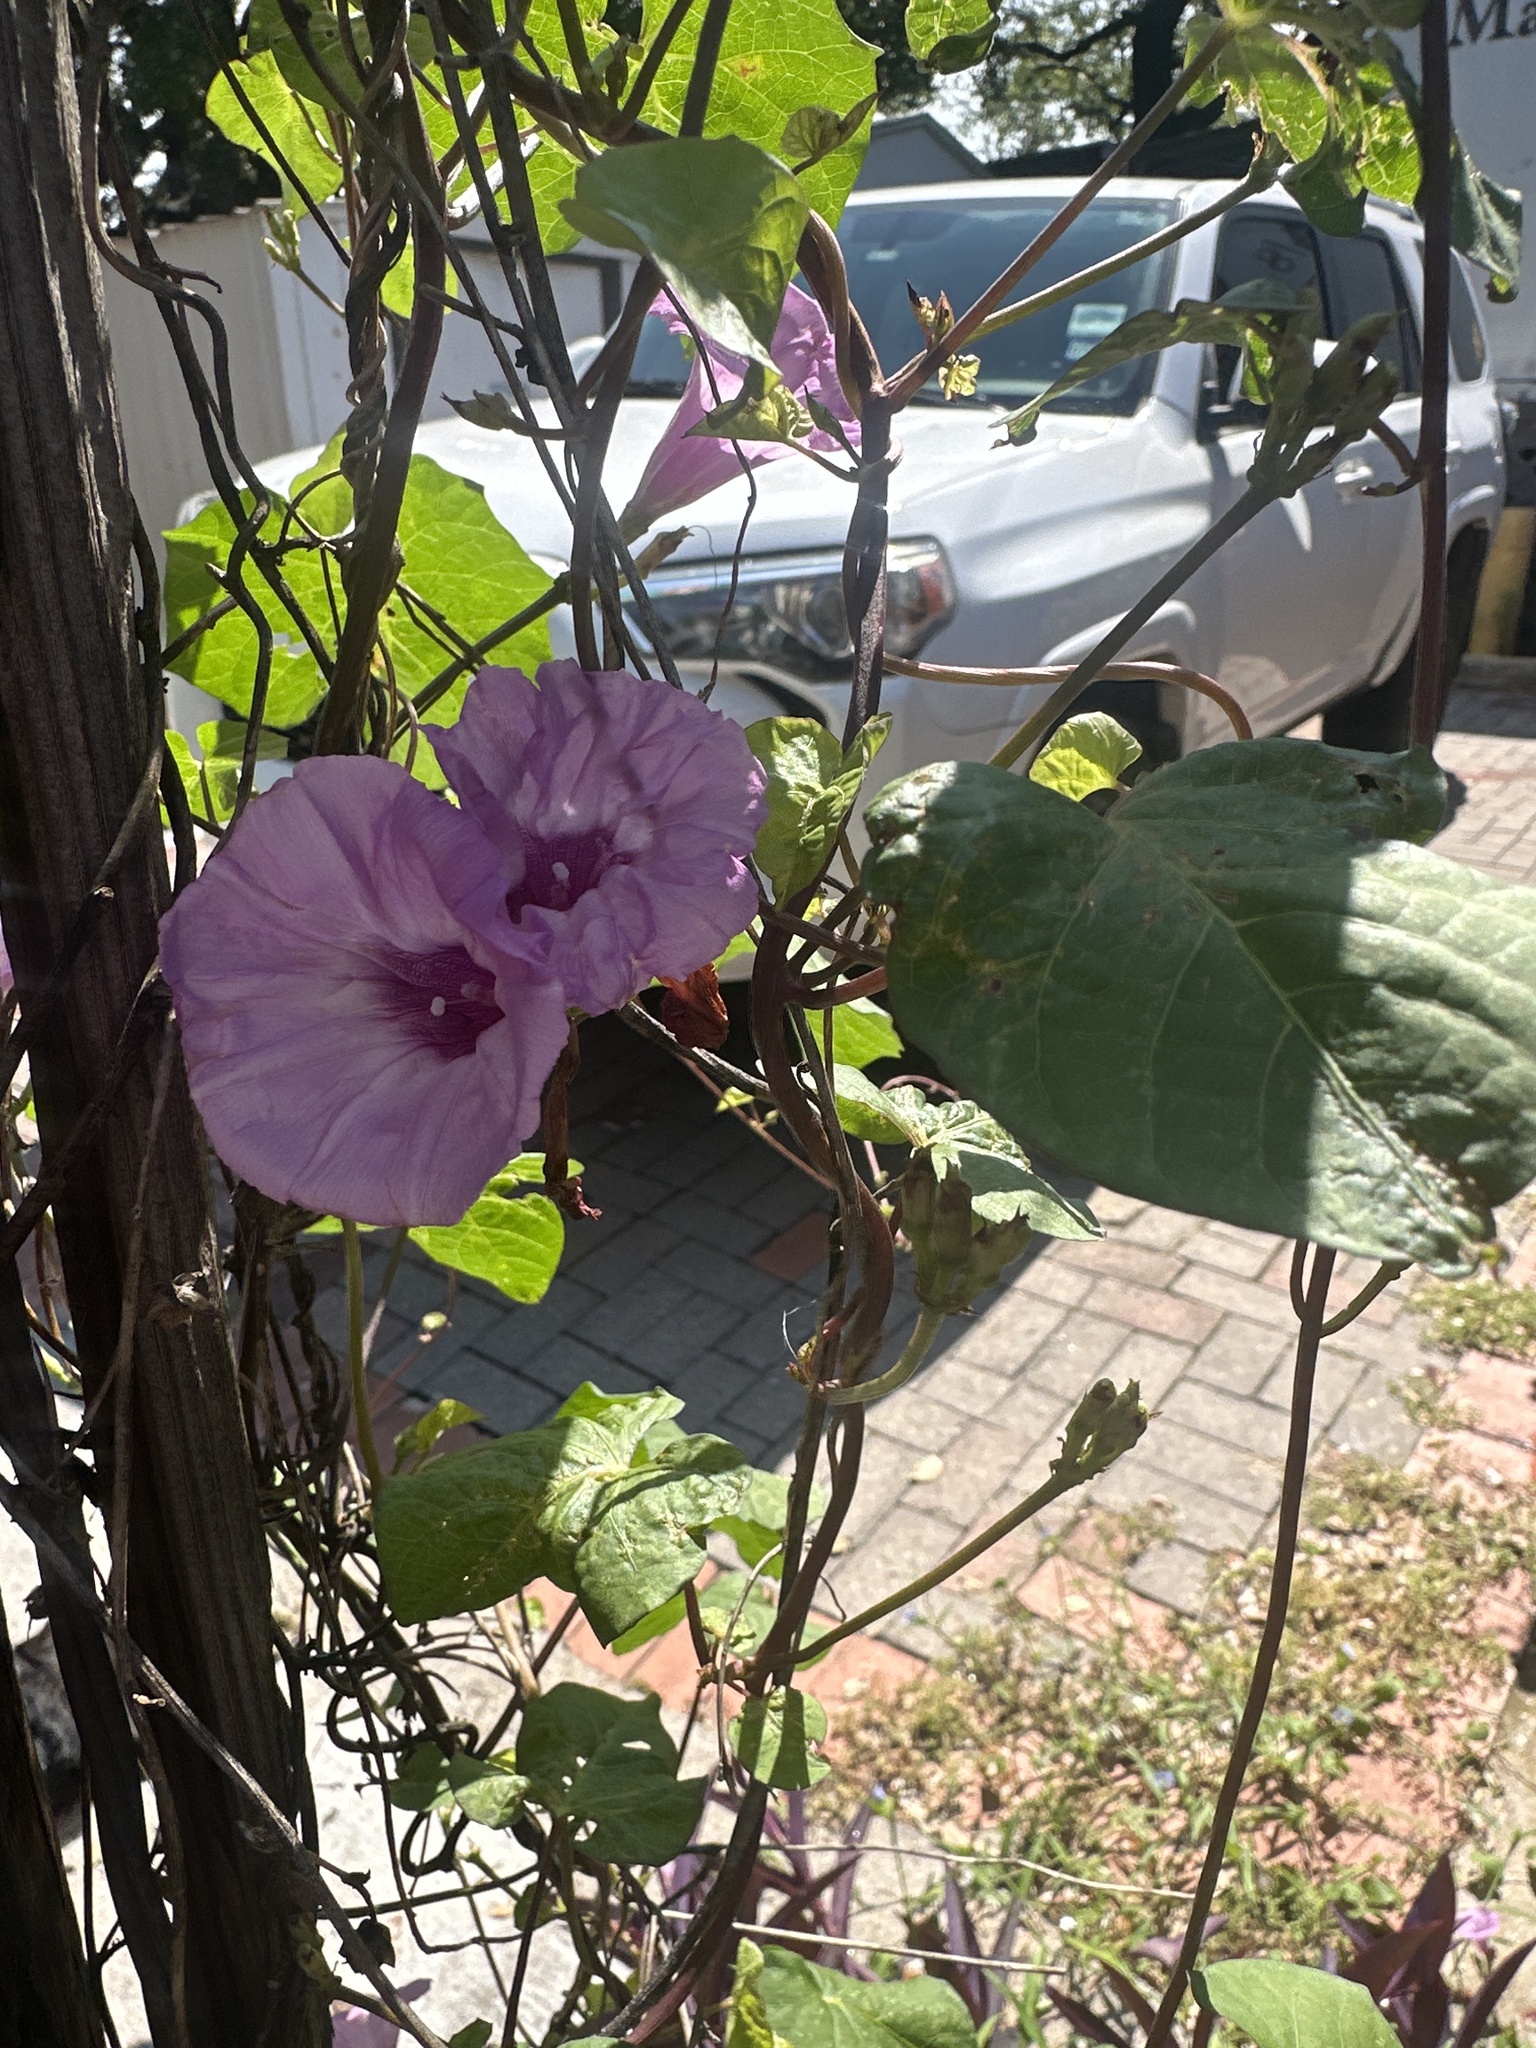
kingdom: Plantae
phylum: Tracheophyta
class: Magnoliopsida
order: Solanales
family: Convolvulaceae
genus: Ipomoea
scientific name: Ipomoea cordatotriloba
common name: Cotton morning glory
